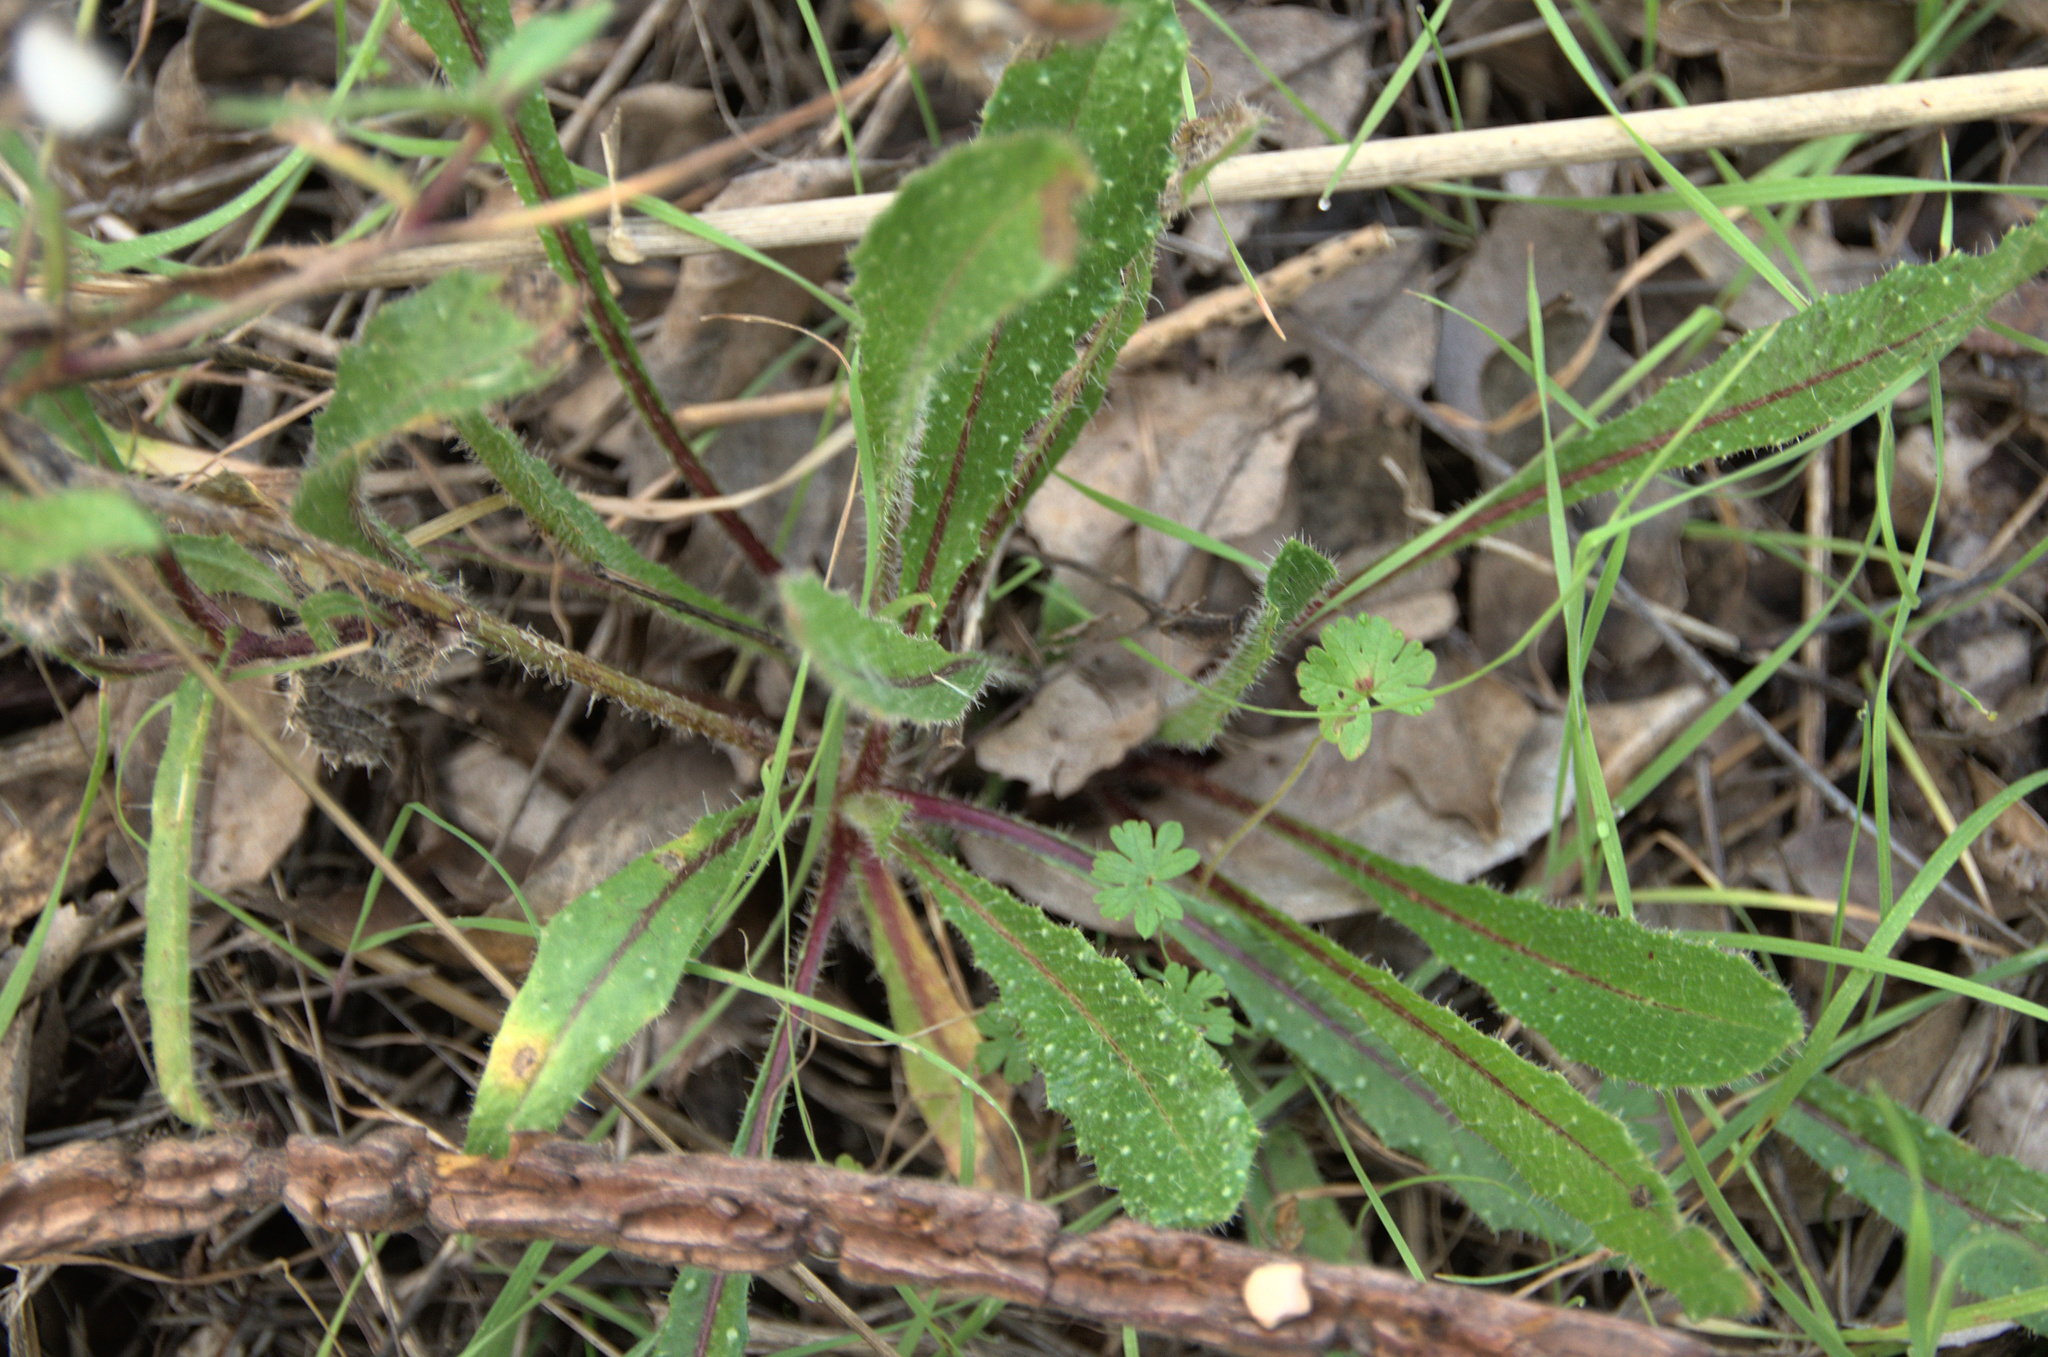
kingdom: Plantae
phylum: Tracheophyta
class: Magnoliopsida
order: Asterales
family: Asteraceae
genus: Helminthotheca
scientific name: Helminthotheca echioides
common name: Ox-tongue
